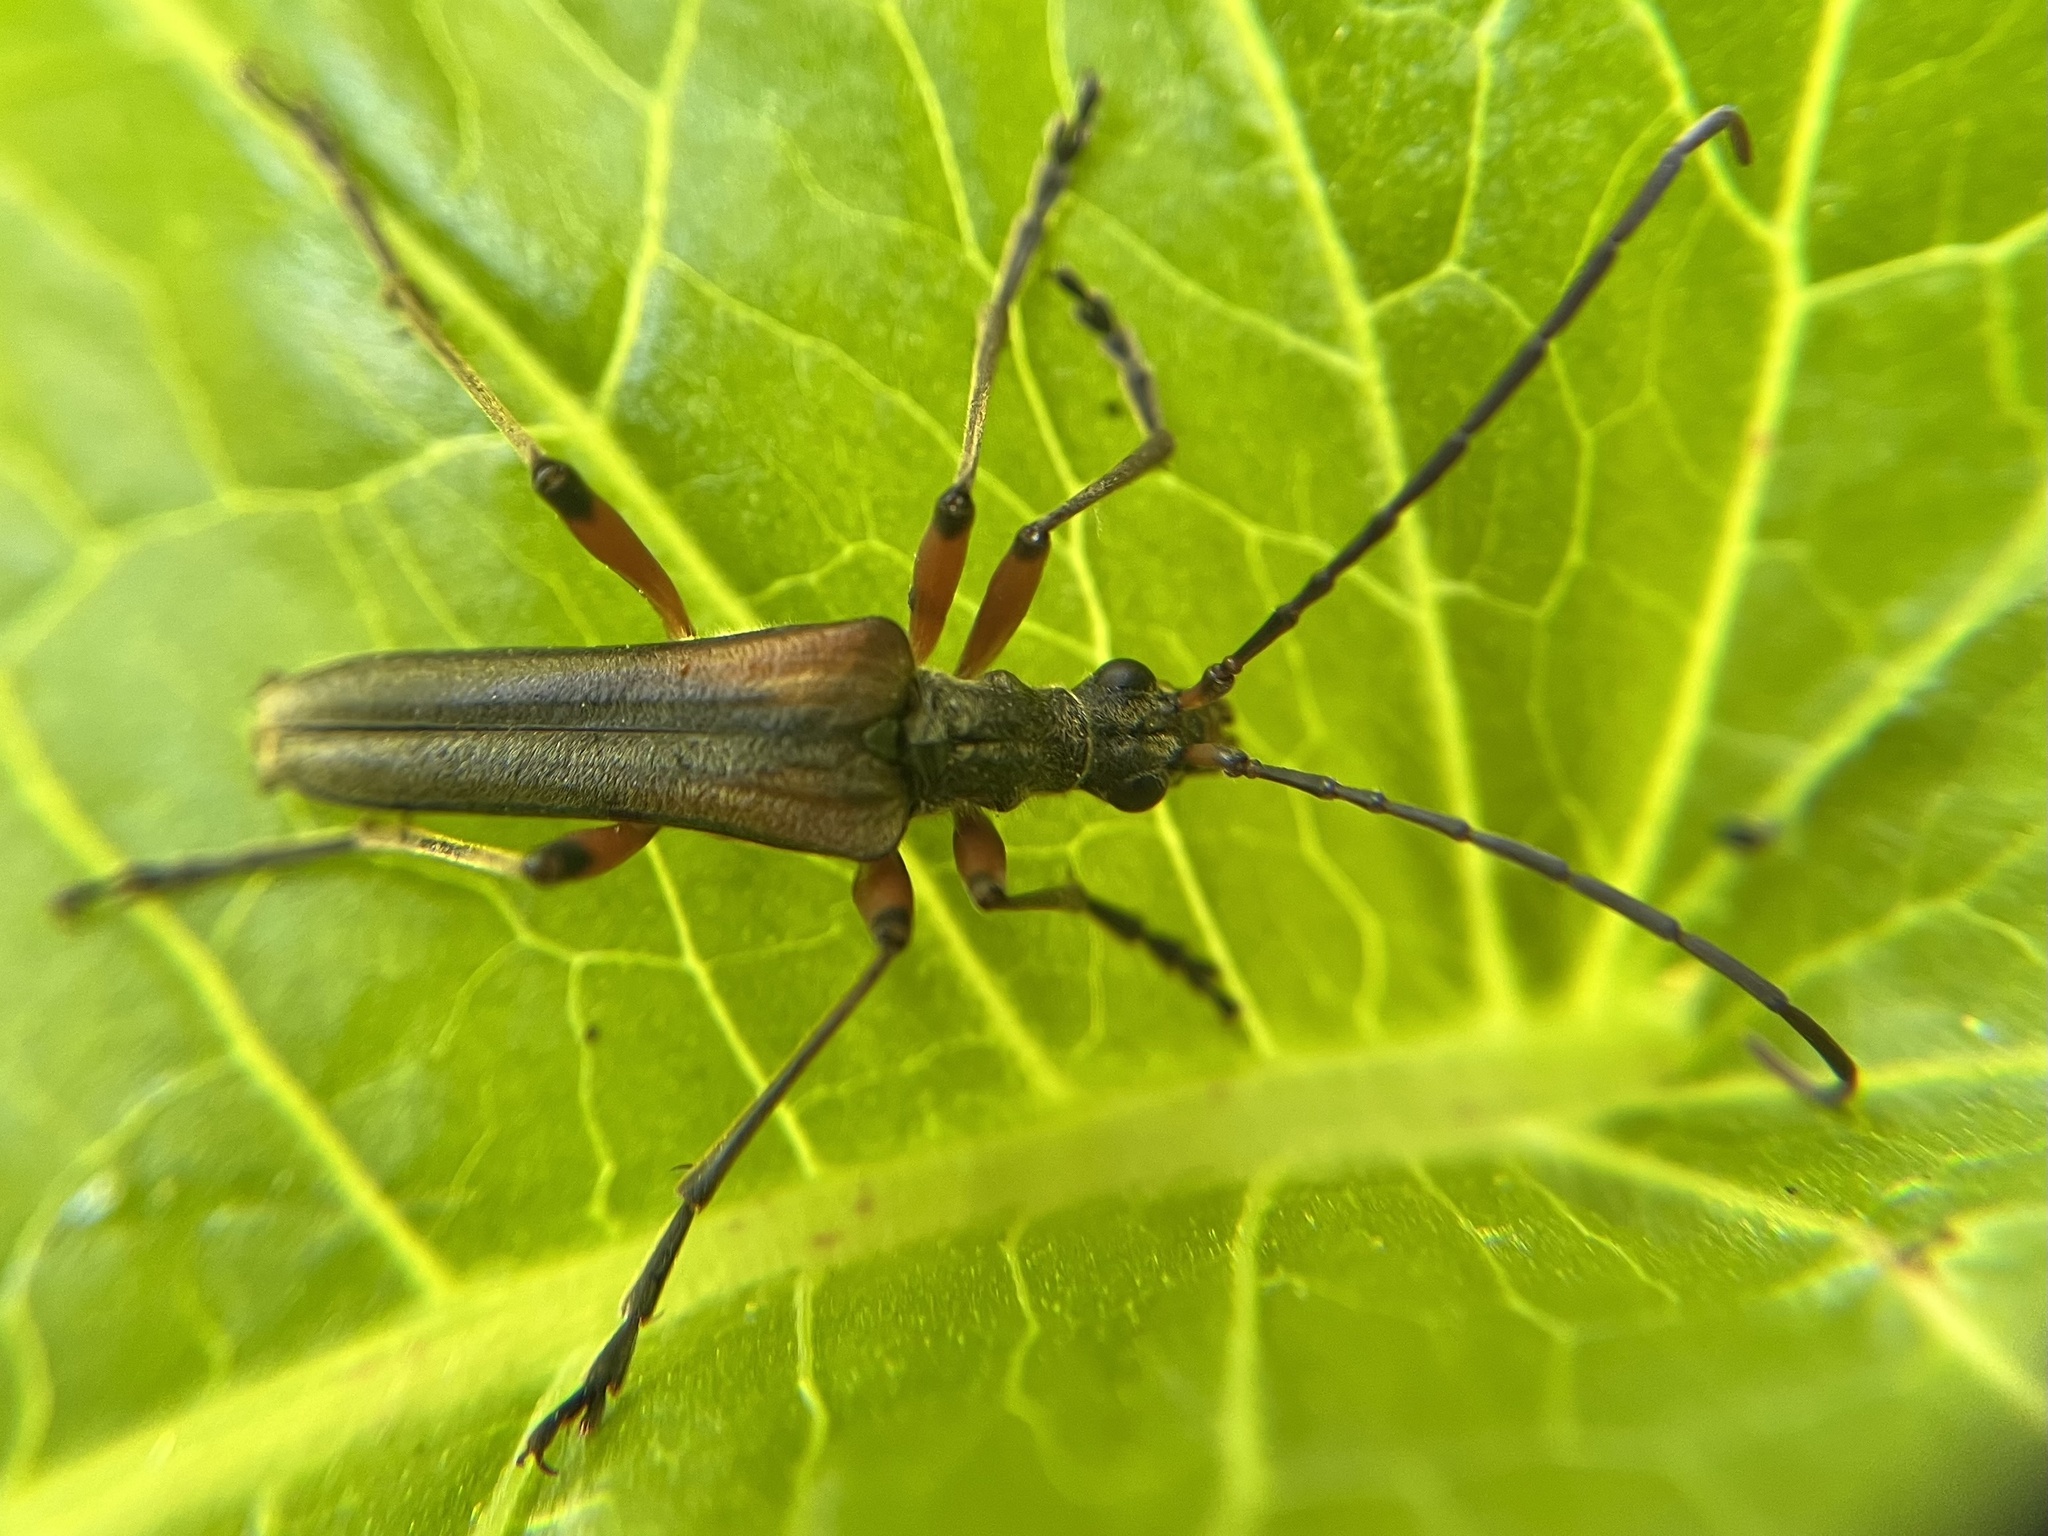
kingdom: Animalia
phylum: Arthropoda
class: Insecta
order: Coleoptera
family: Cerambycidae
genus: Stenocorus
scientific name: Stenocorus meridianus
